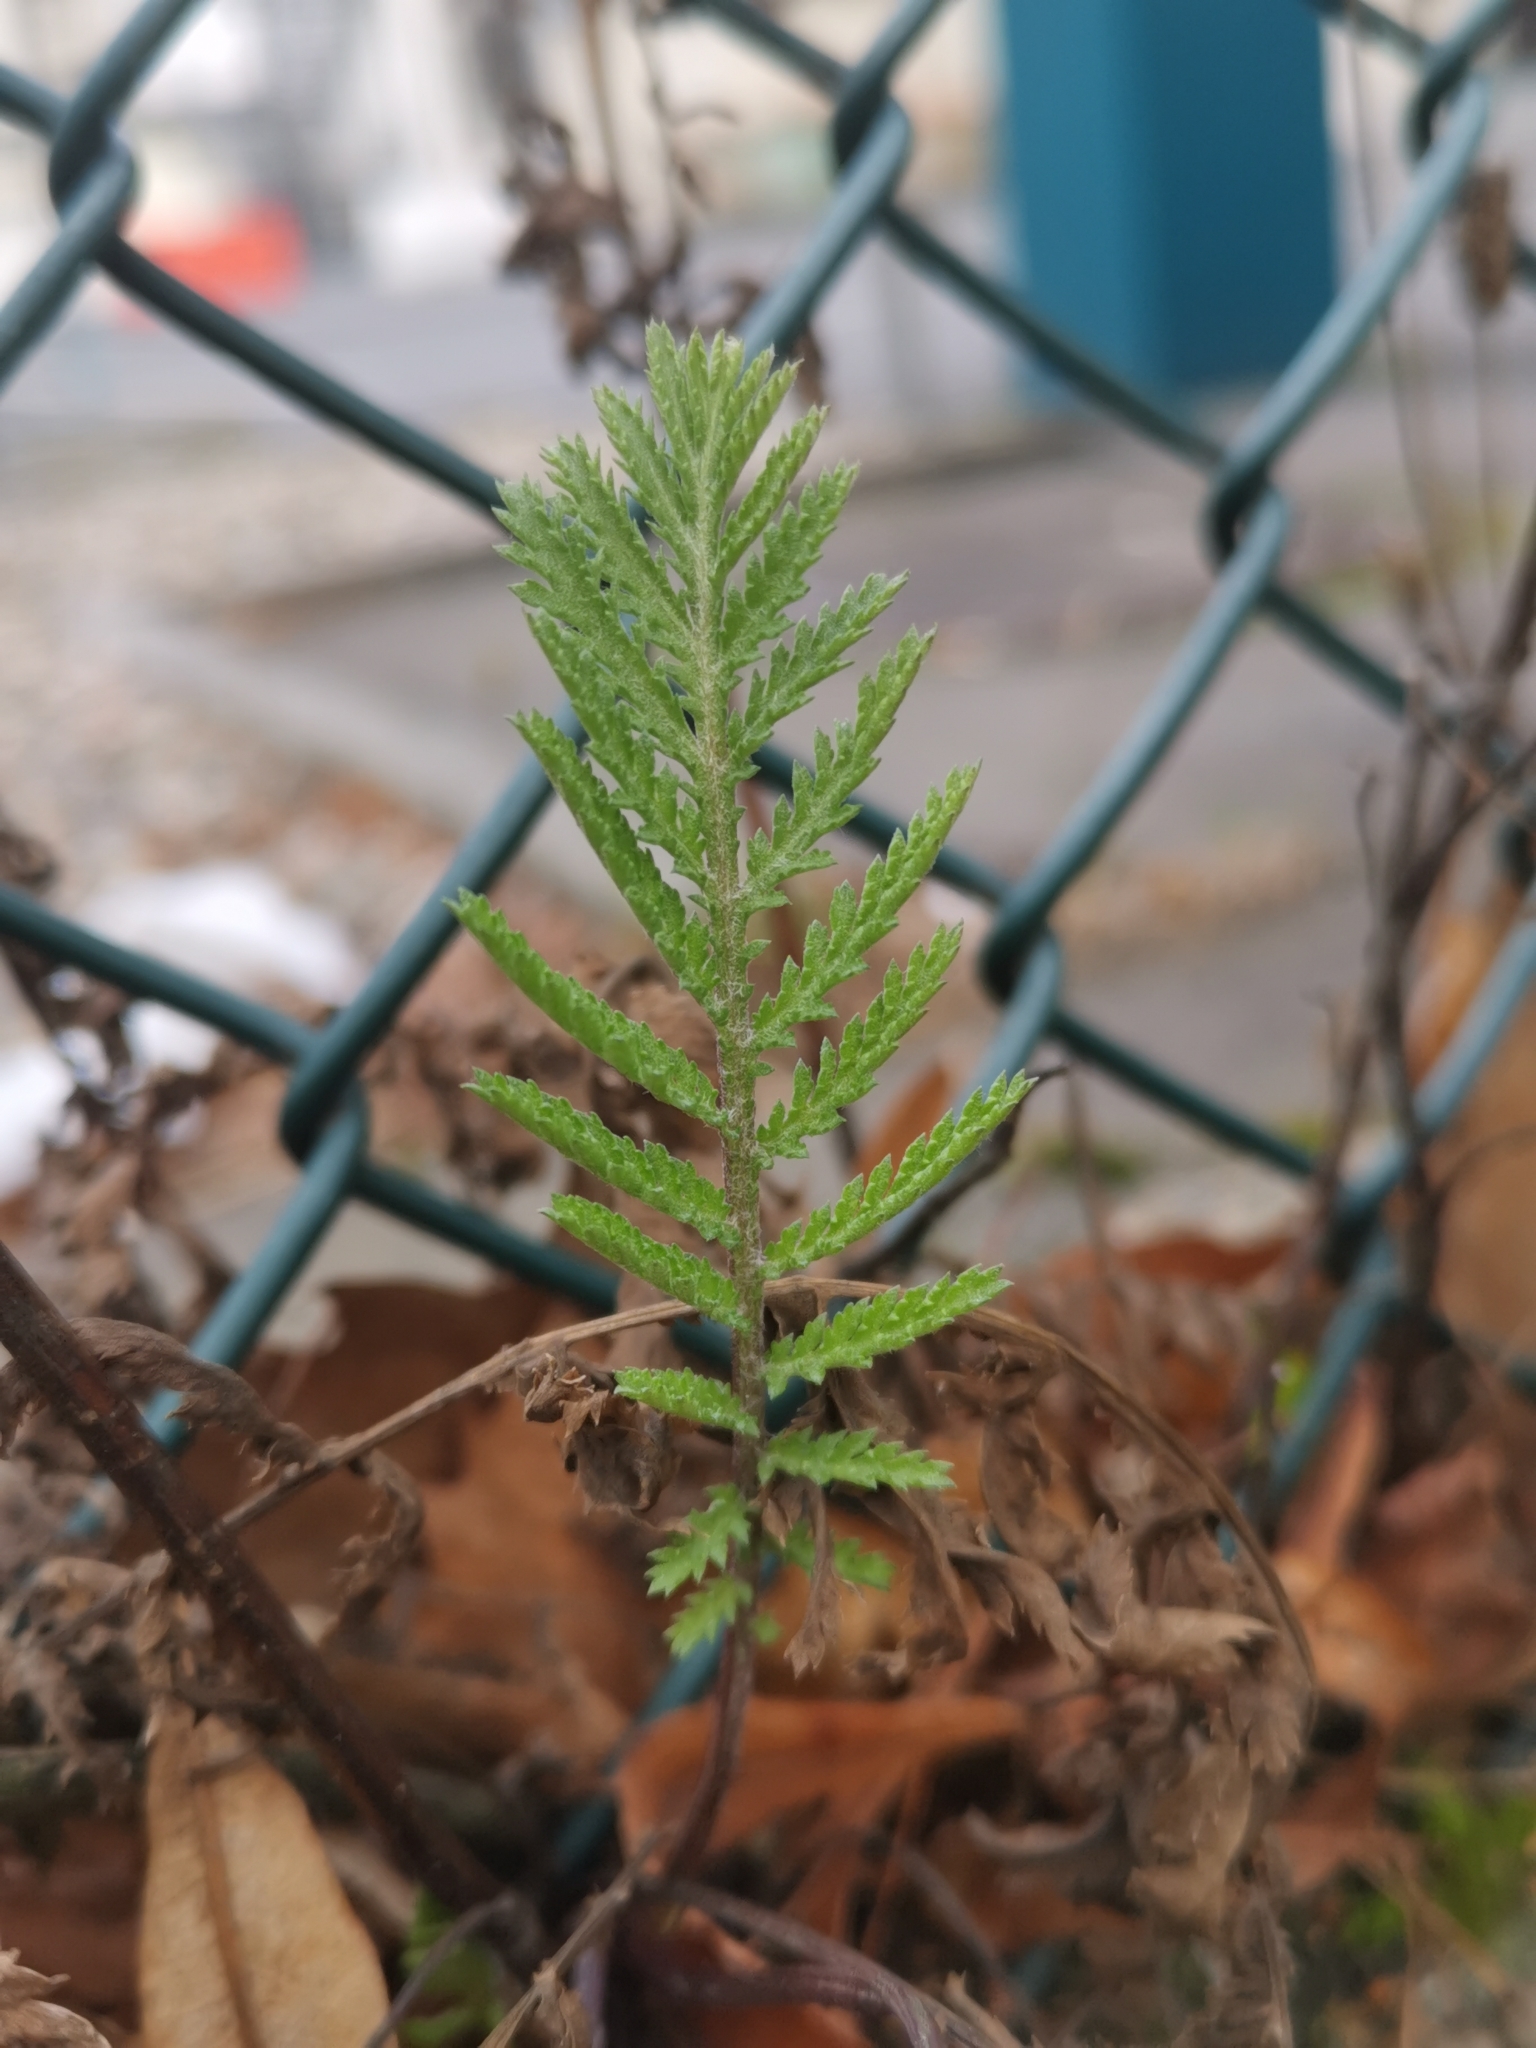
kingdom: Plantae
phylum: Tracheophyta
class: Magnoliopsida
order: Asterales
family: Asteraceae
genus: Tanacetum
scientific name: Tanacetum vulgare
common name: Common tansy
